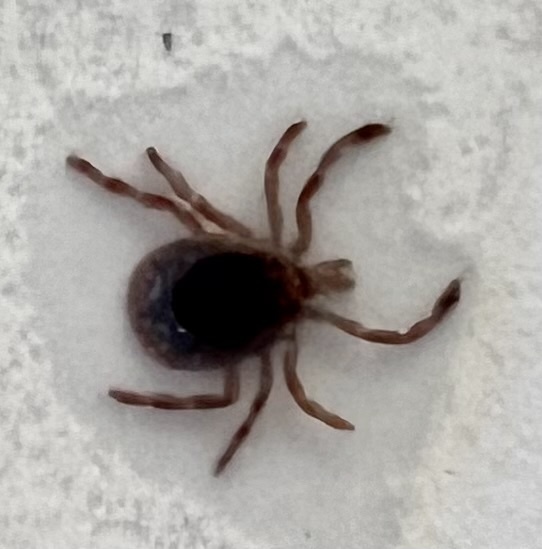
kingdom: Animalia
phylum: Arthropoda
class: Arachnida
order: Ixodida
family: Ixodidae
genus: Amblyomma
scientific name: Amblyomma americanum
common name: Lone star tick
